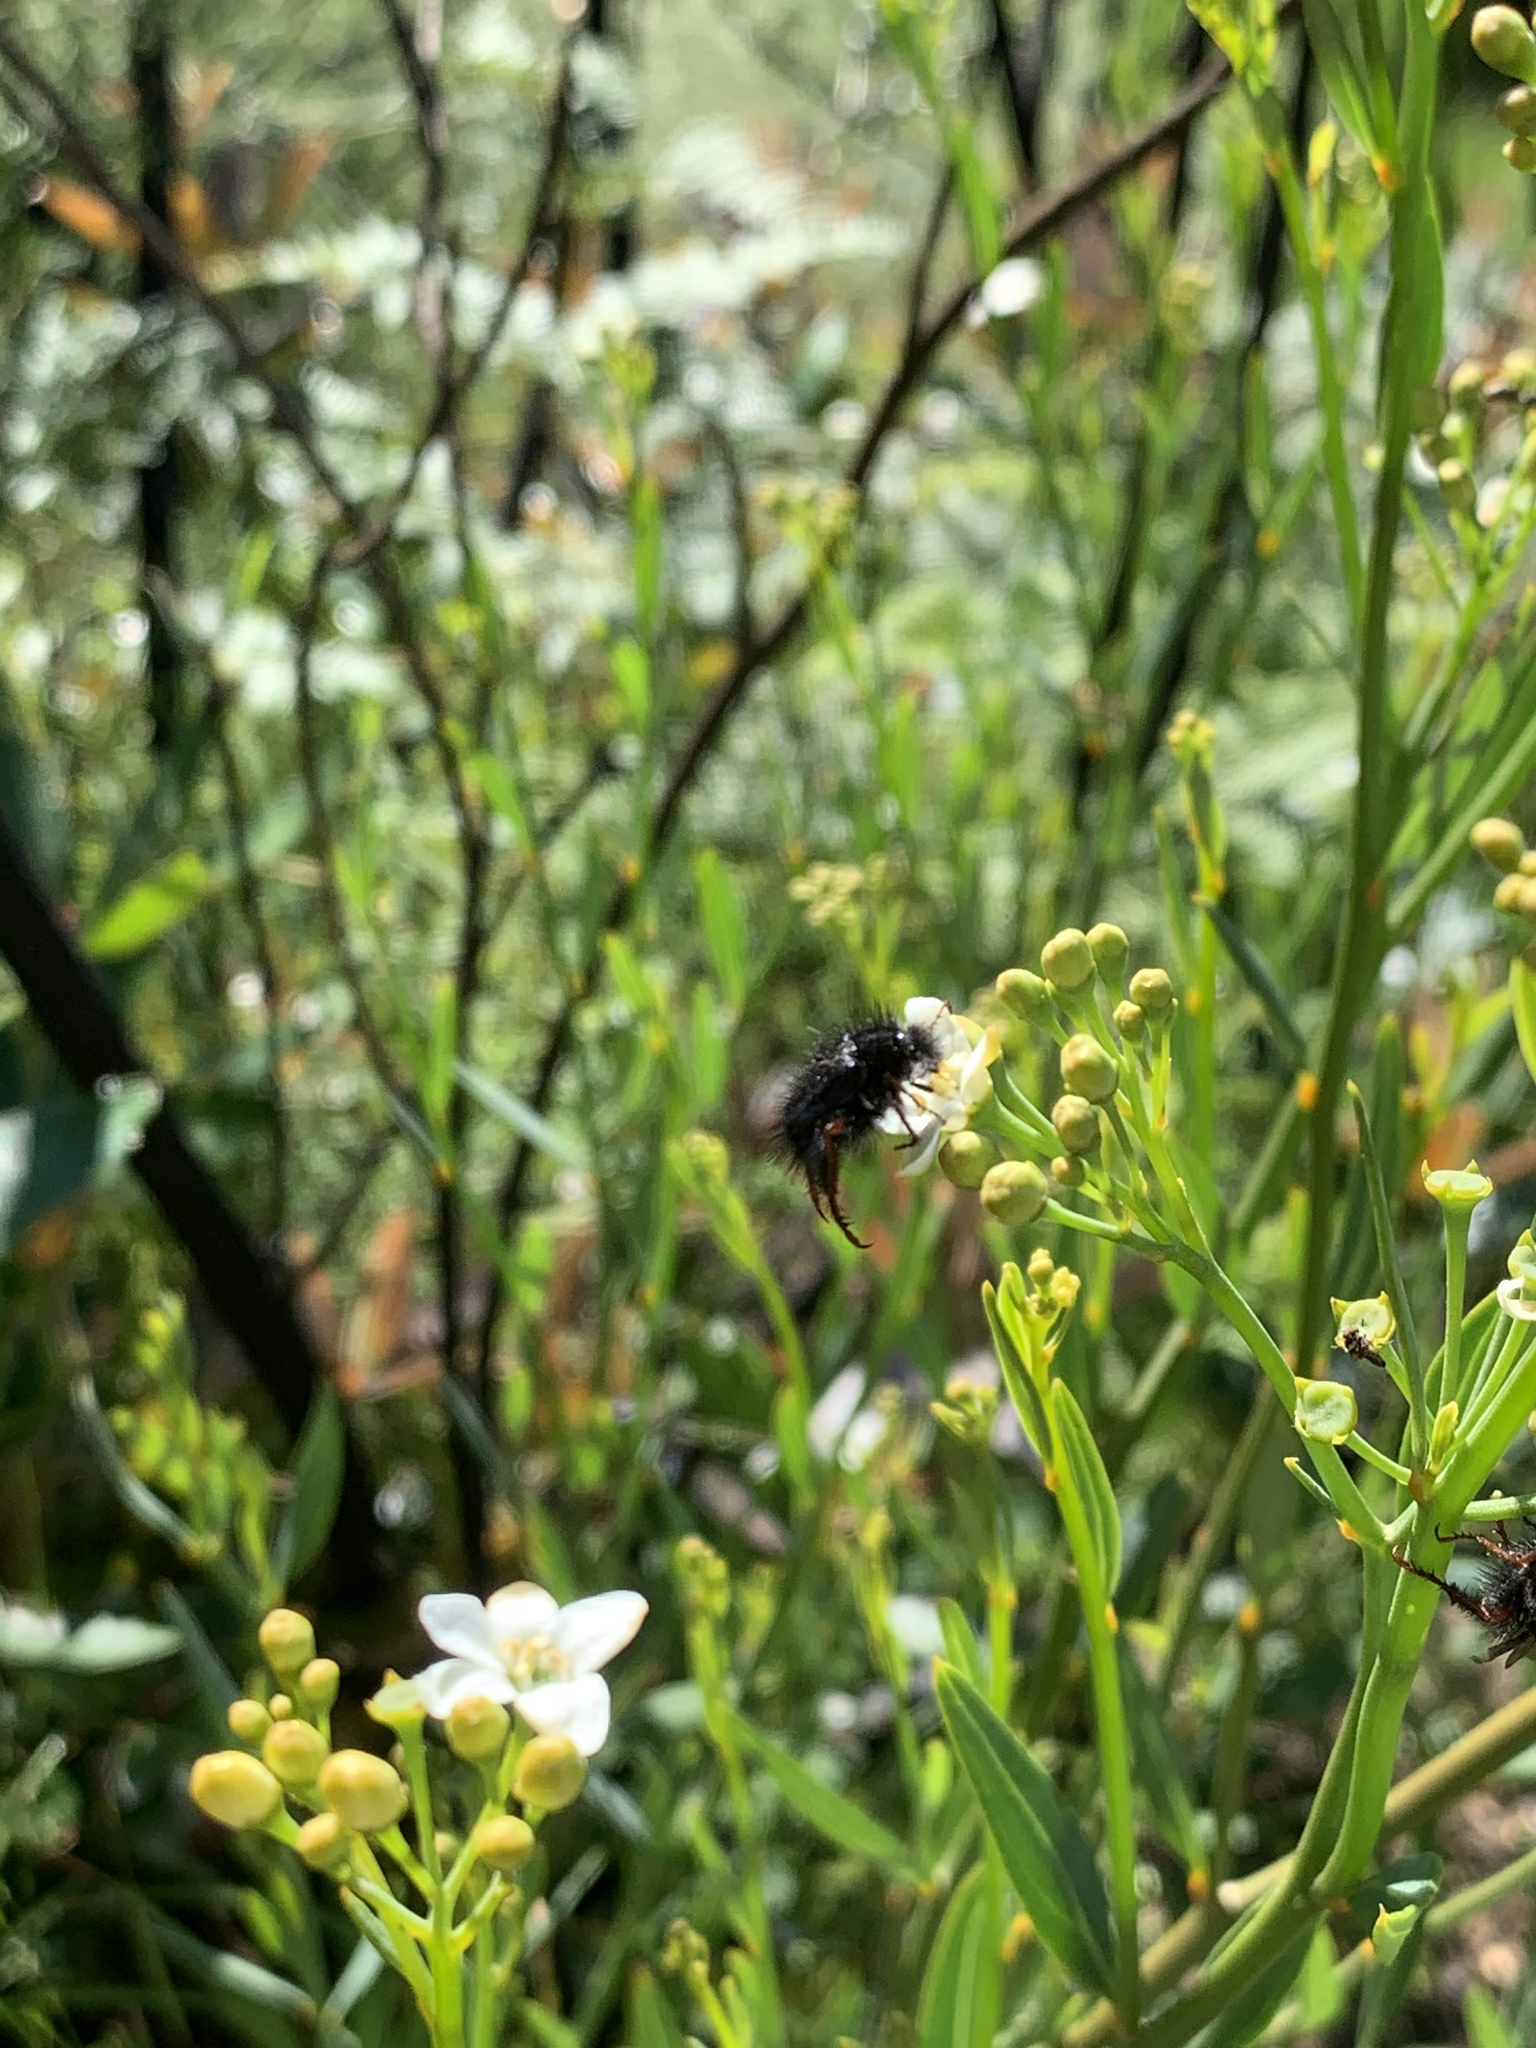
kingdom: Plantae
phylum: Tracheophyta
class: Magnoliopsida
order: Solanales
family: Montiniaceae
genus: Montinia
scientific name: Montinia caryophyllacea
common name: Wild clove-bush
